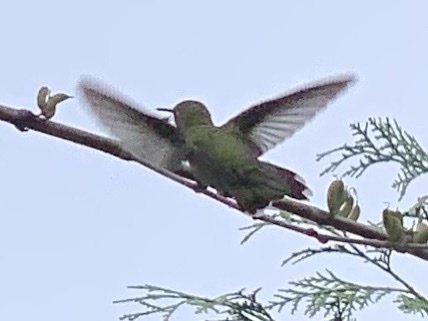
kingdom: Animalia
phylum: Chordata
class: Aves
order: Apodiformes
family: Trochilidae
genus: Calypte
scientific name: Calypte anna
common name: Anna's hummingbird
